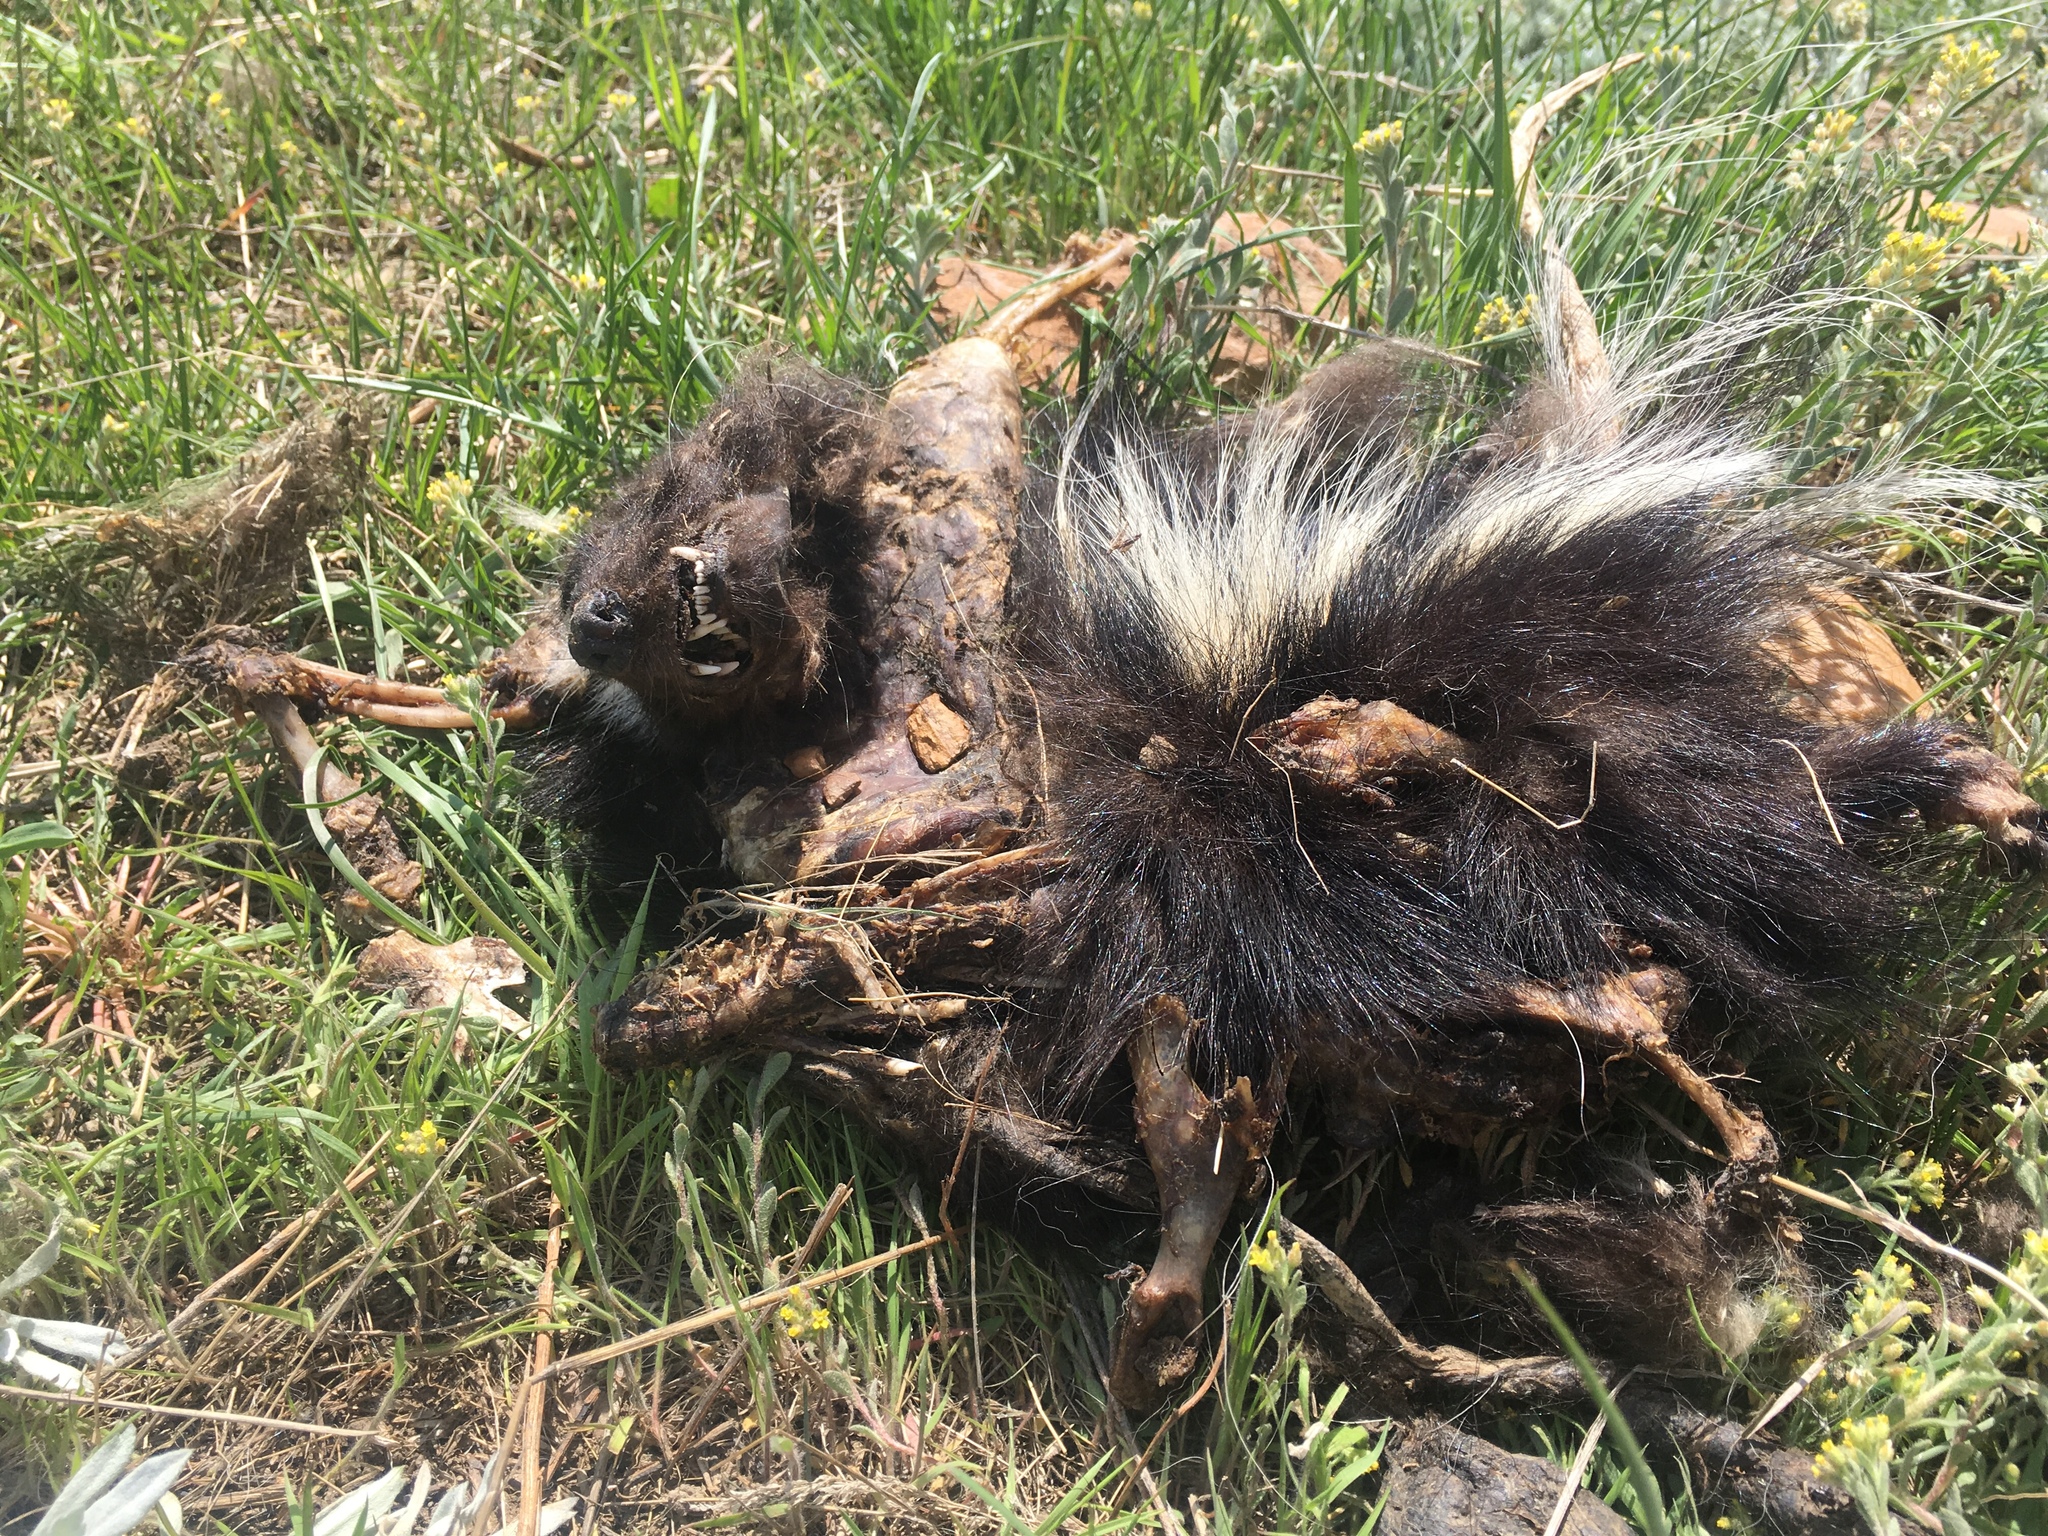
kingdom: Animalia
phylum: Chordata
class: Mammalia
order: Carnivora
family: Mephitidae
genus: Mephitis
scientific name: Mephitis mephitis
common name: Striped skunk
